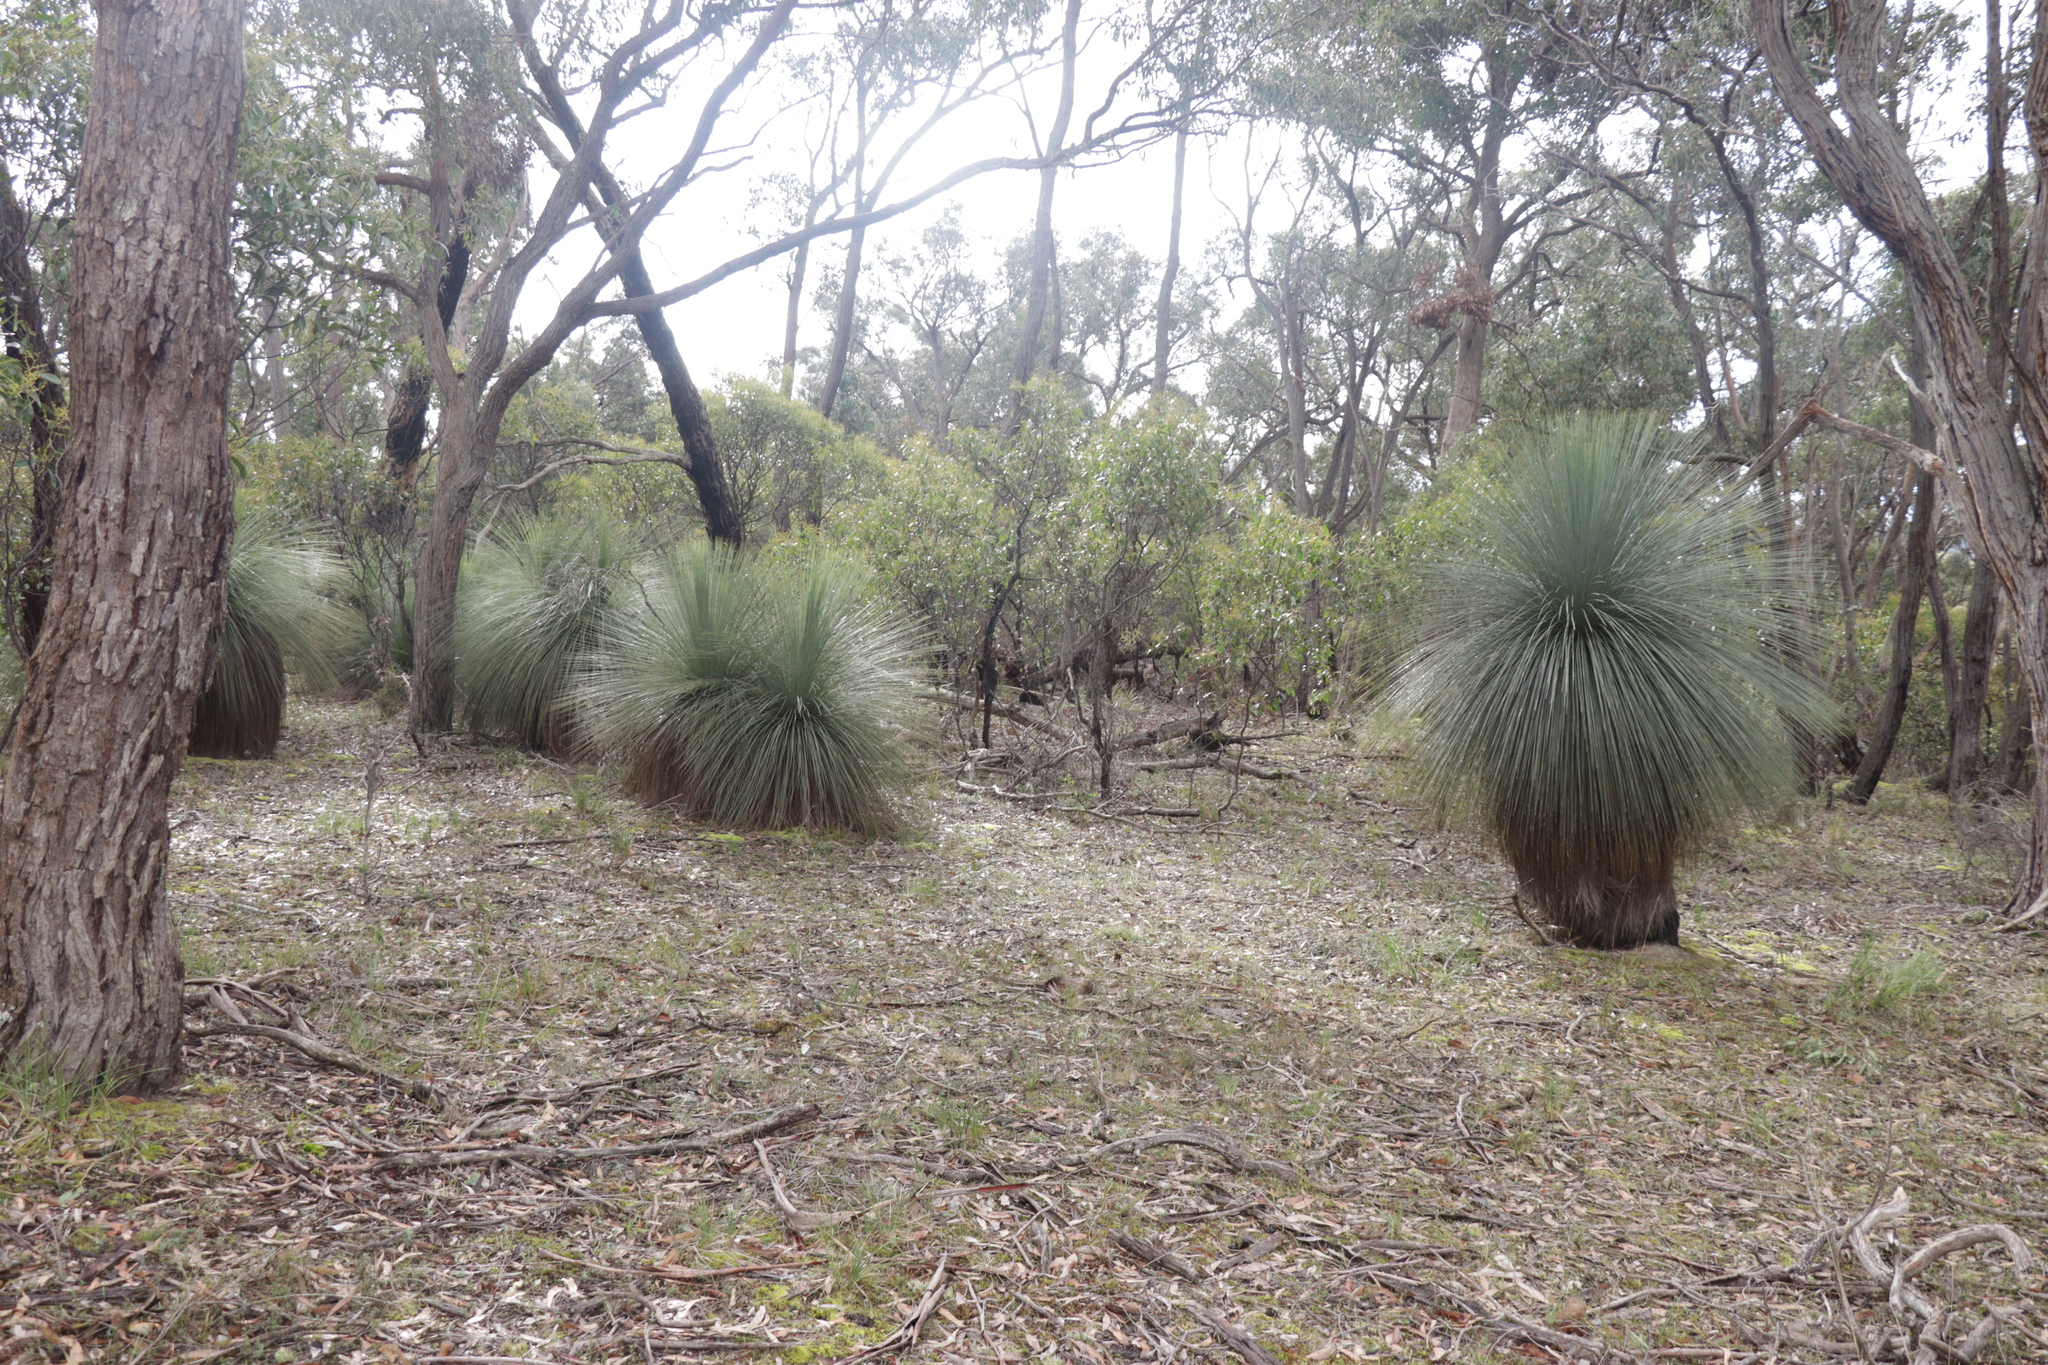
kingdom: Plantae
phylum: Tracheophyta
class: Liliopsida
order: Asparagales
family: Asphodelaceae
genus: Xanthorrhoea
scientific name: Xanthorrhoea australis
